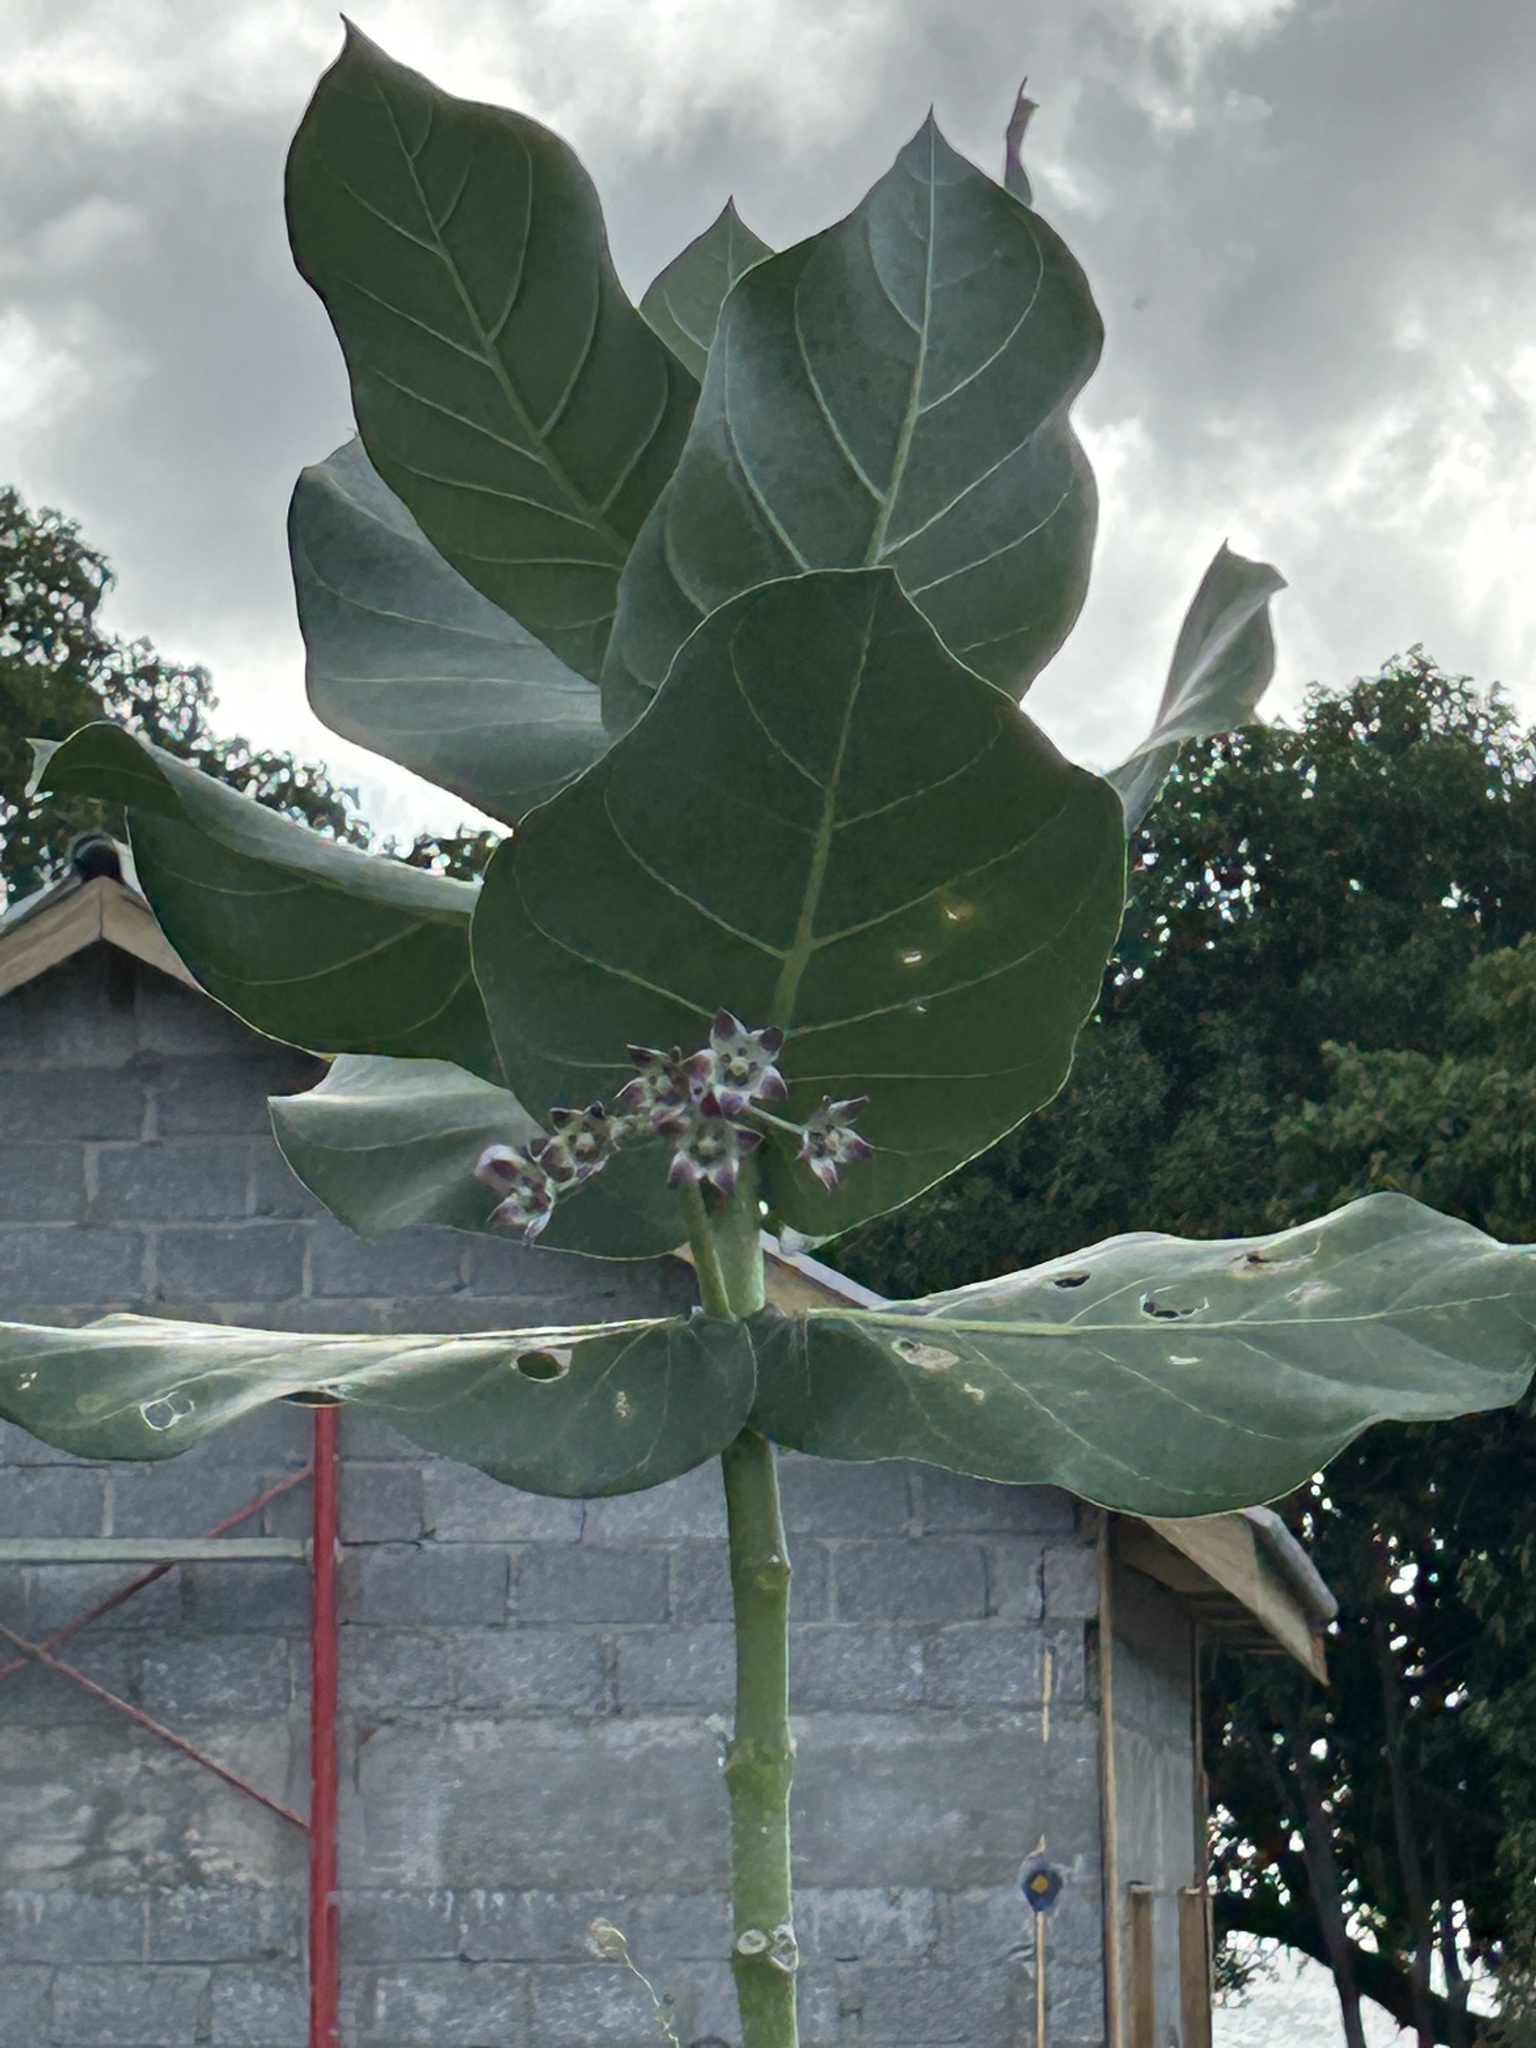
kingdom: Plantae
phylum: Tracheophyta
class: Magnoliopsida
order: Gentianales
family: Apocynaceae
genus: Calotropis
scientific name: Calotropis procera
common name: Roostertree
